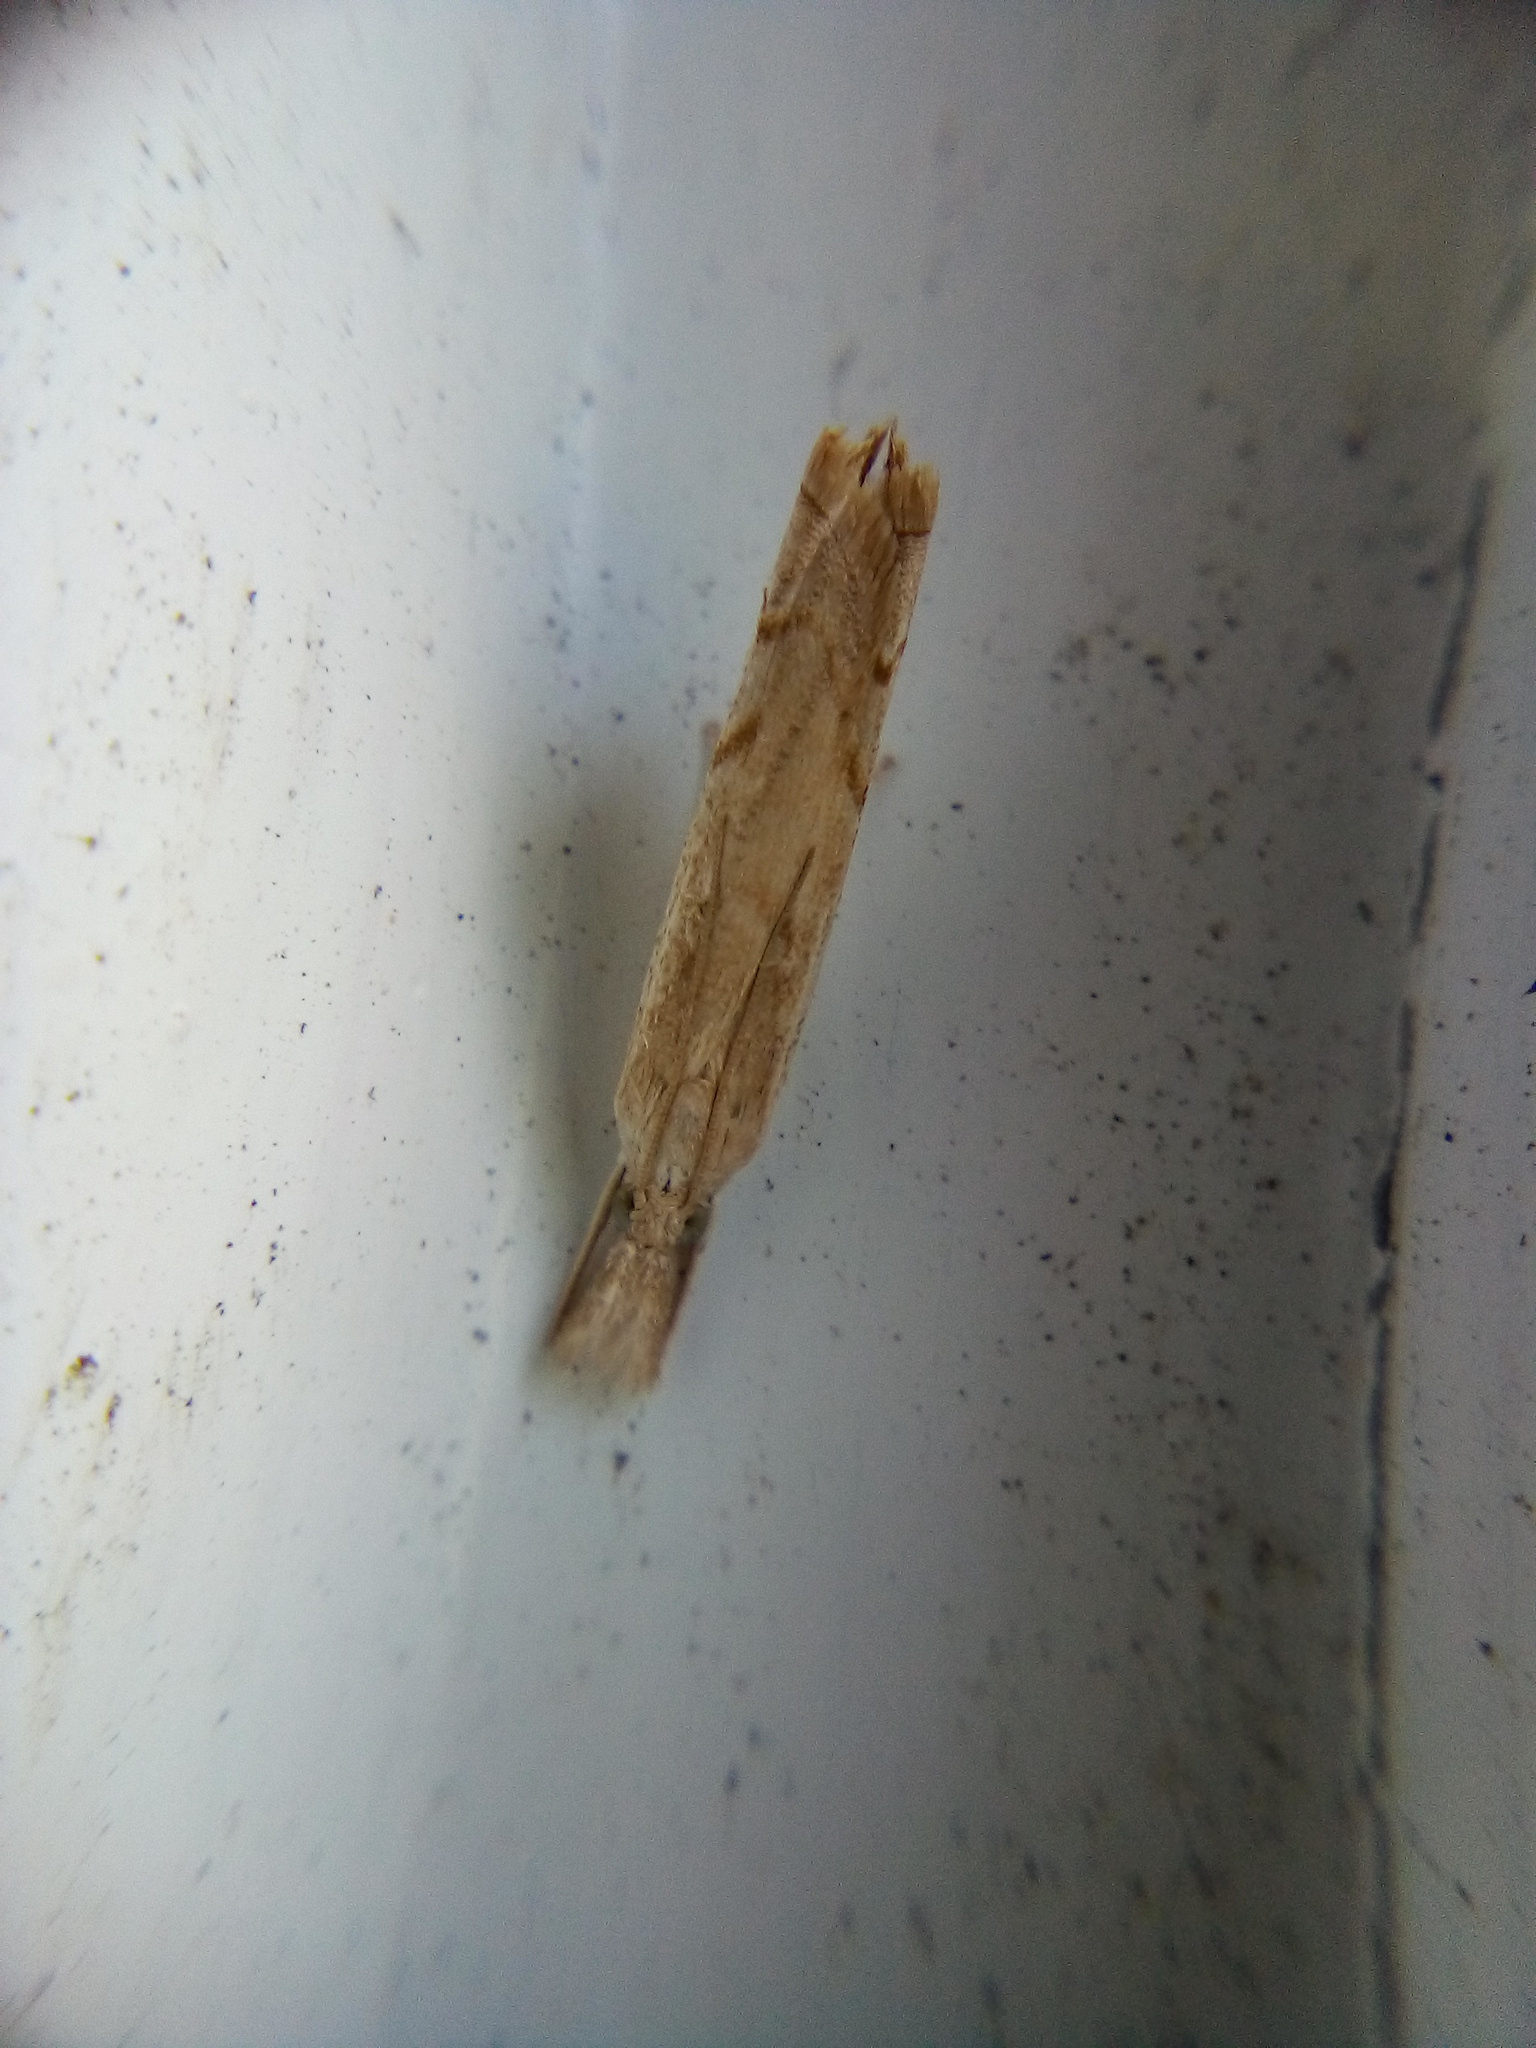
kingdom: Animalia
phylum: Arthropoda
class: Insecta
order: Lepidoptera
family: Crambidae
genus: Culladia
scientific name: Culladia cuneiferellus
